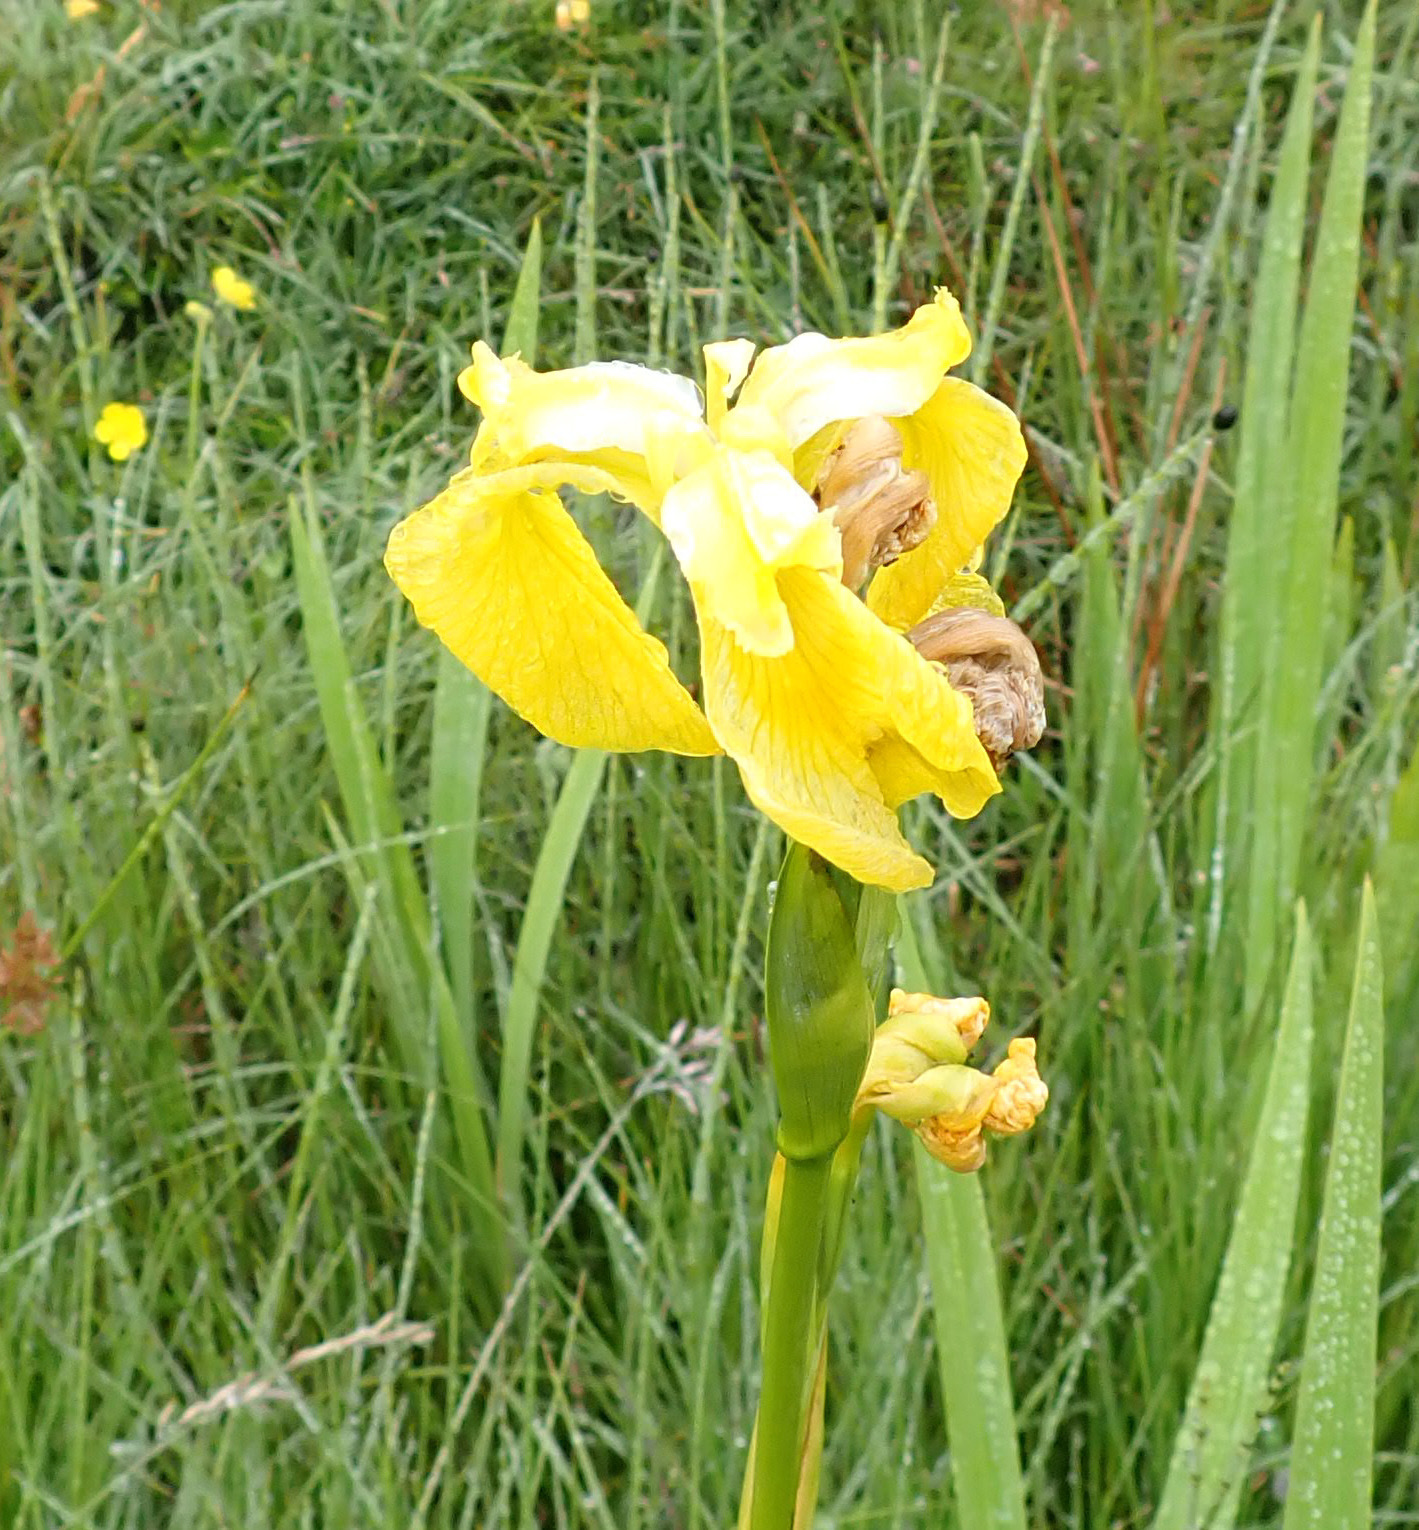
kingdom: Plantae
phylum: Tracheophyta
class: Liliopsida
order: Asparagales
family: Iridaceae
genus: Iris
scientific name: Iris pseudacorus
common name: Yellow flag
